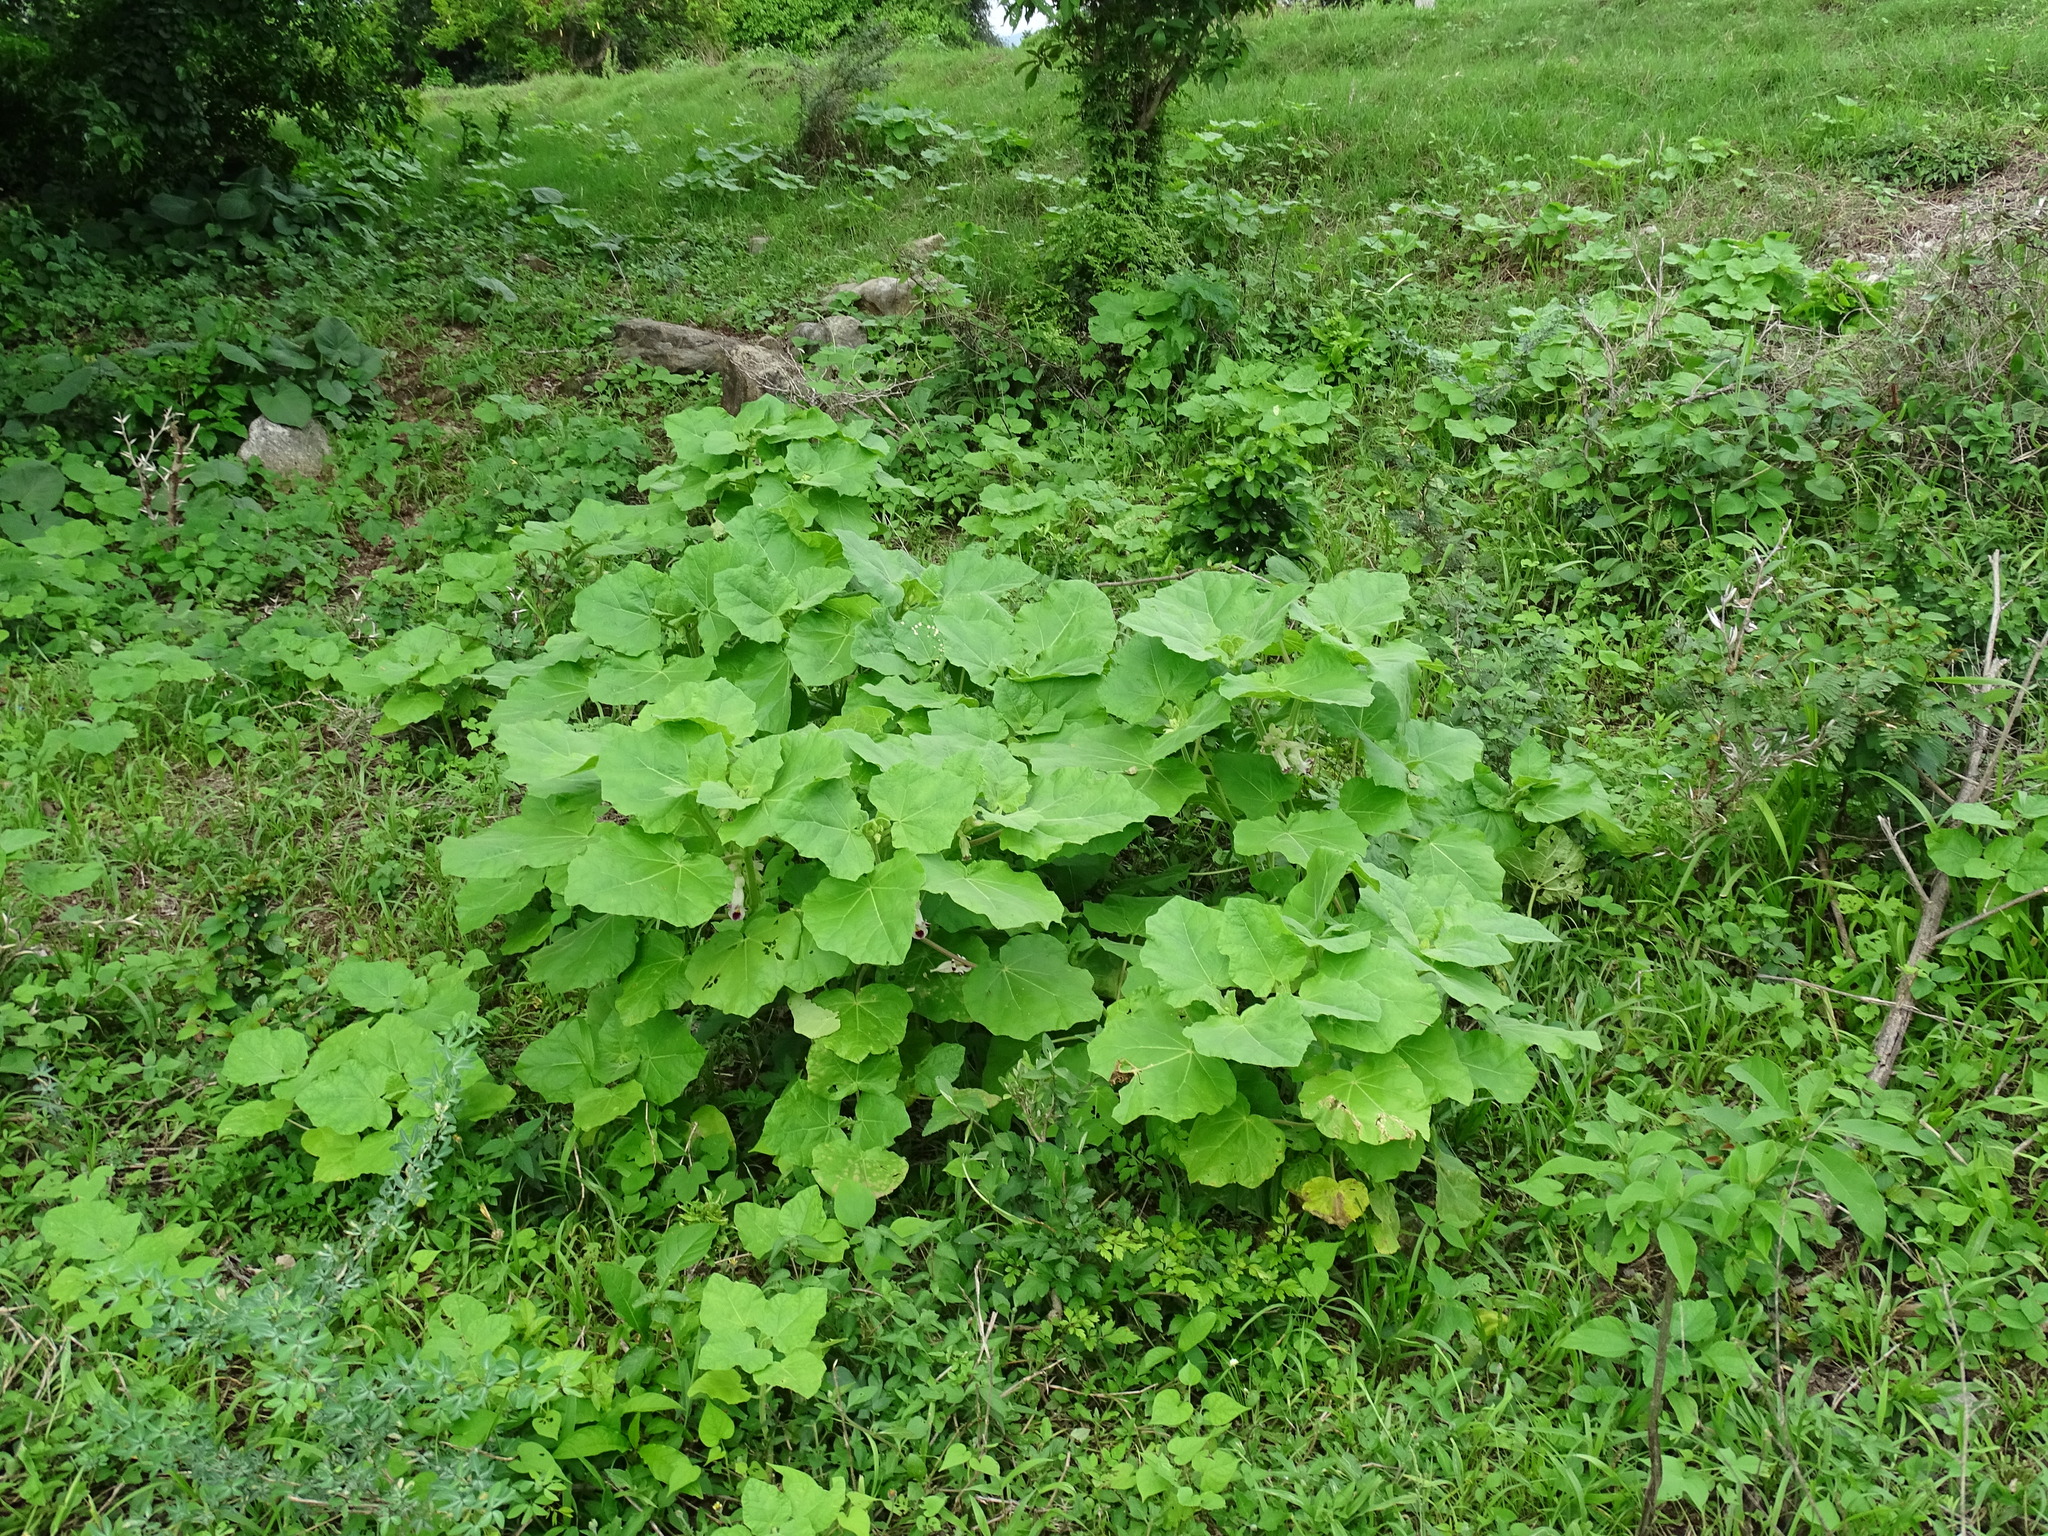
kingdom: Plantae
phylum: Tracheophyta
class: Magnoliopsida
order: Lamiales
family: Martyniaceae
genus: Martynia
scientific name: Martynia annua
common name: Tiger's-claw
